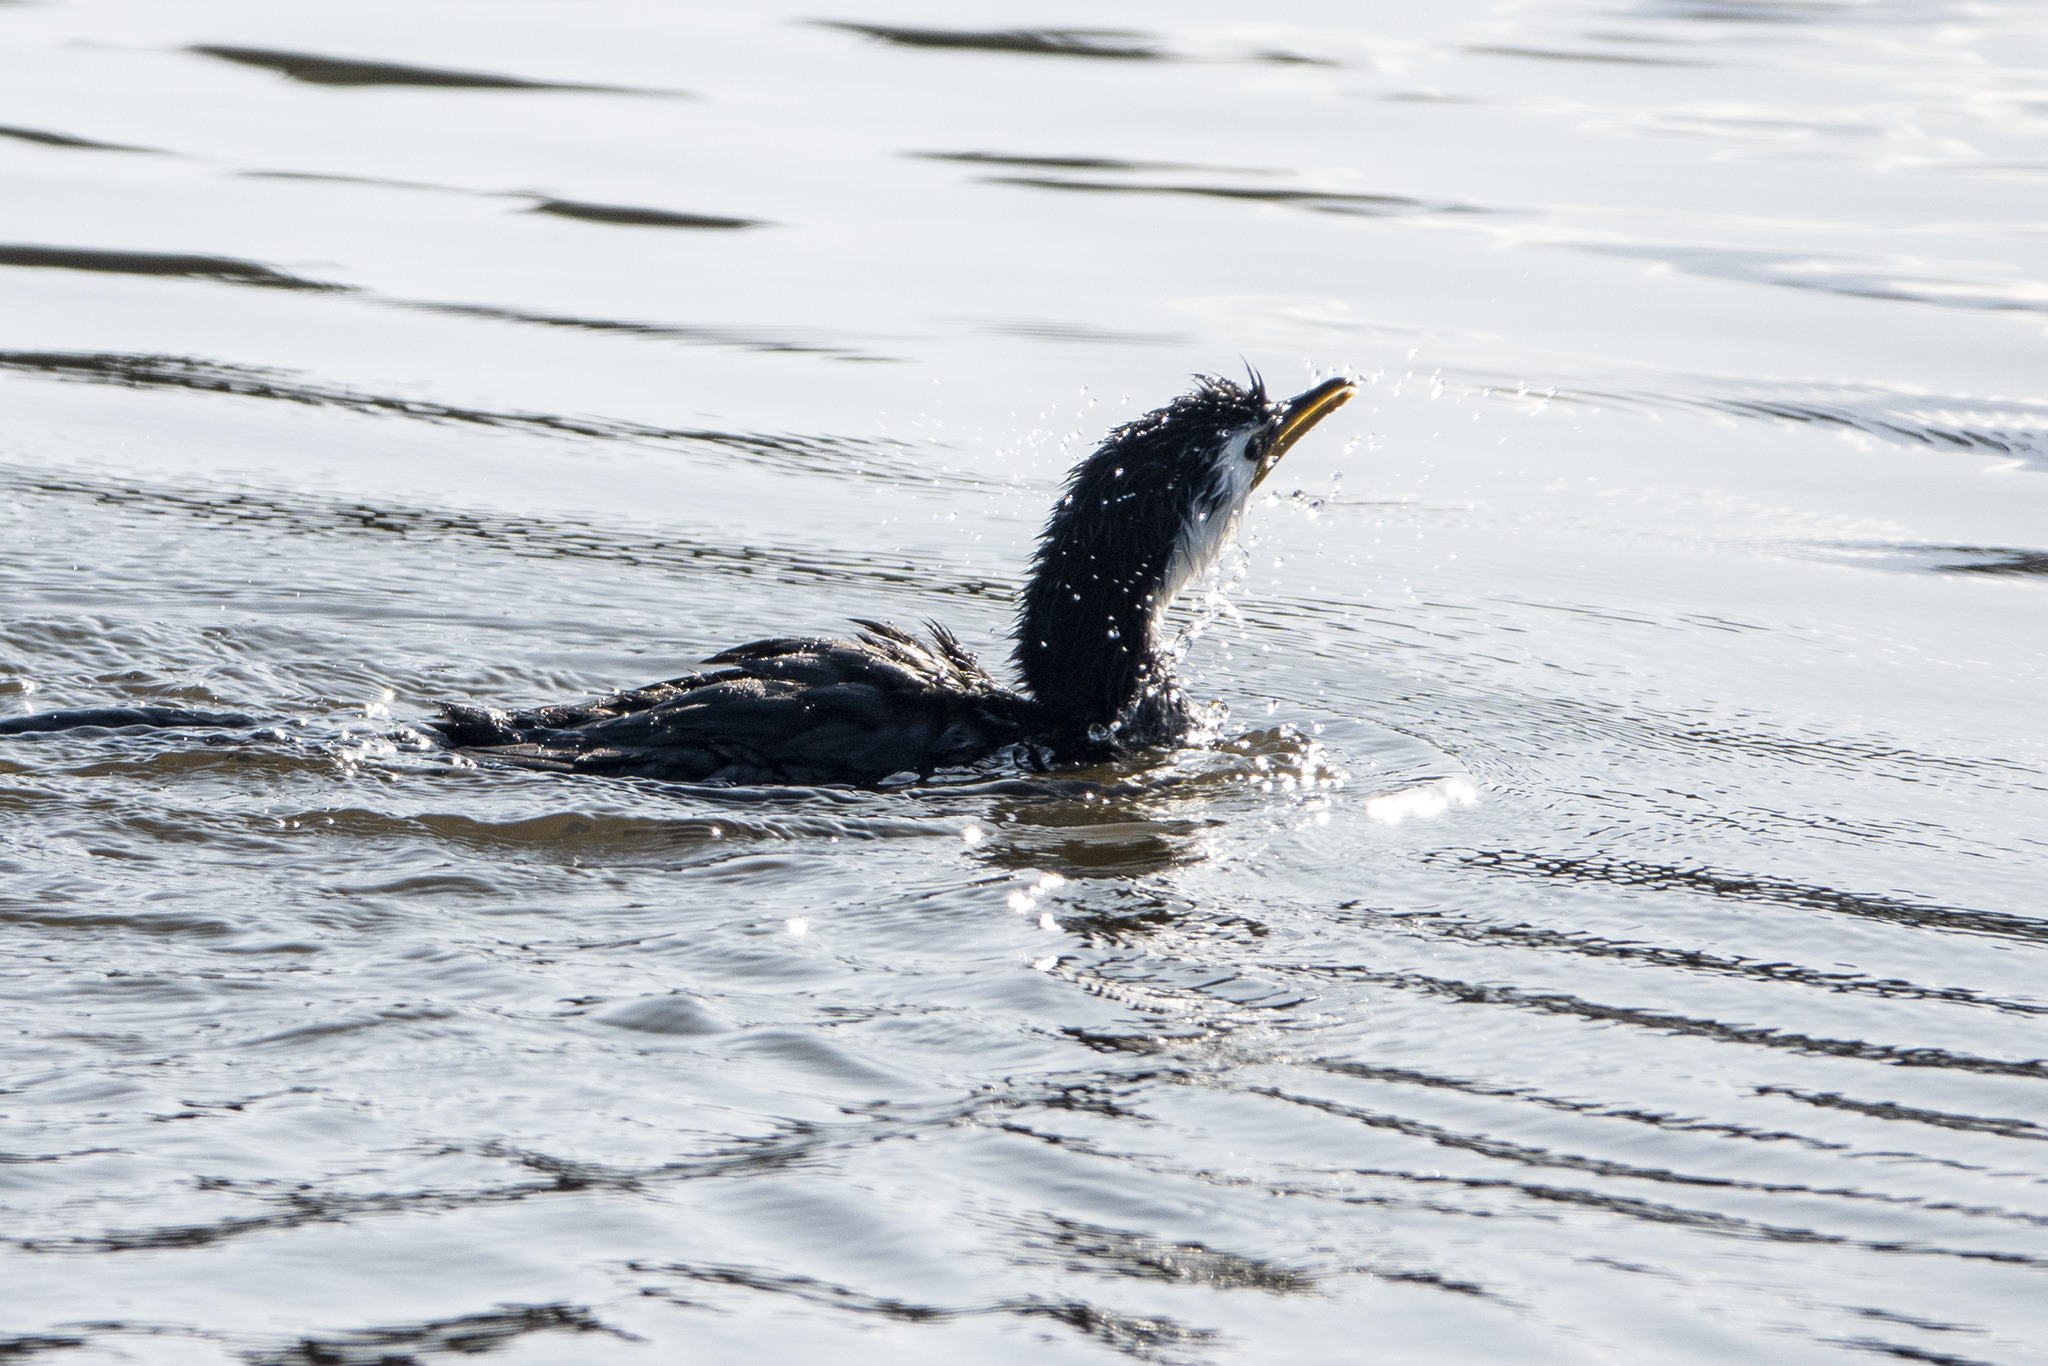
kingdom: Animalia
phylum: Chordata
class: Aves
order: Suliformes
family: Phalacrocoracidae
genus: Microcarbo
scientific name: Microcarbo melanoleucos
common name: Little pied cormorant
